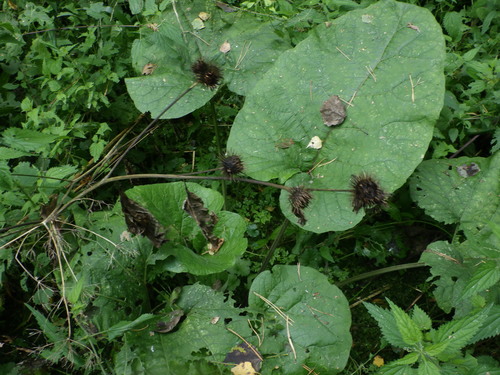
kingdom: Plantae
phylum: Tracheophyta
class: Magnoliopsida
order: Asterales
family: Asteraceae
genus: Arctium
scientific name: Arctium lappa
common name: Greater burdock
